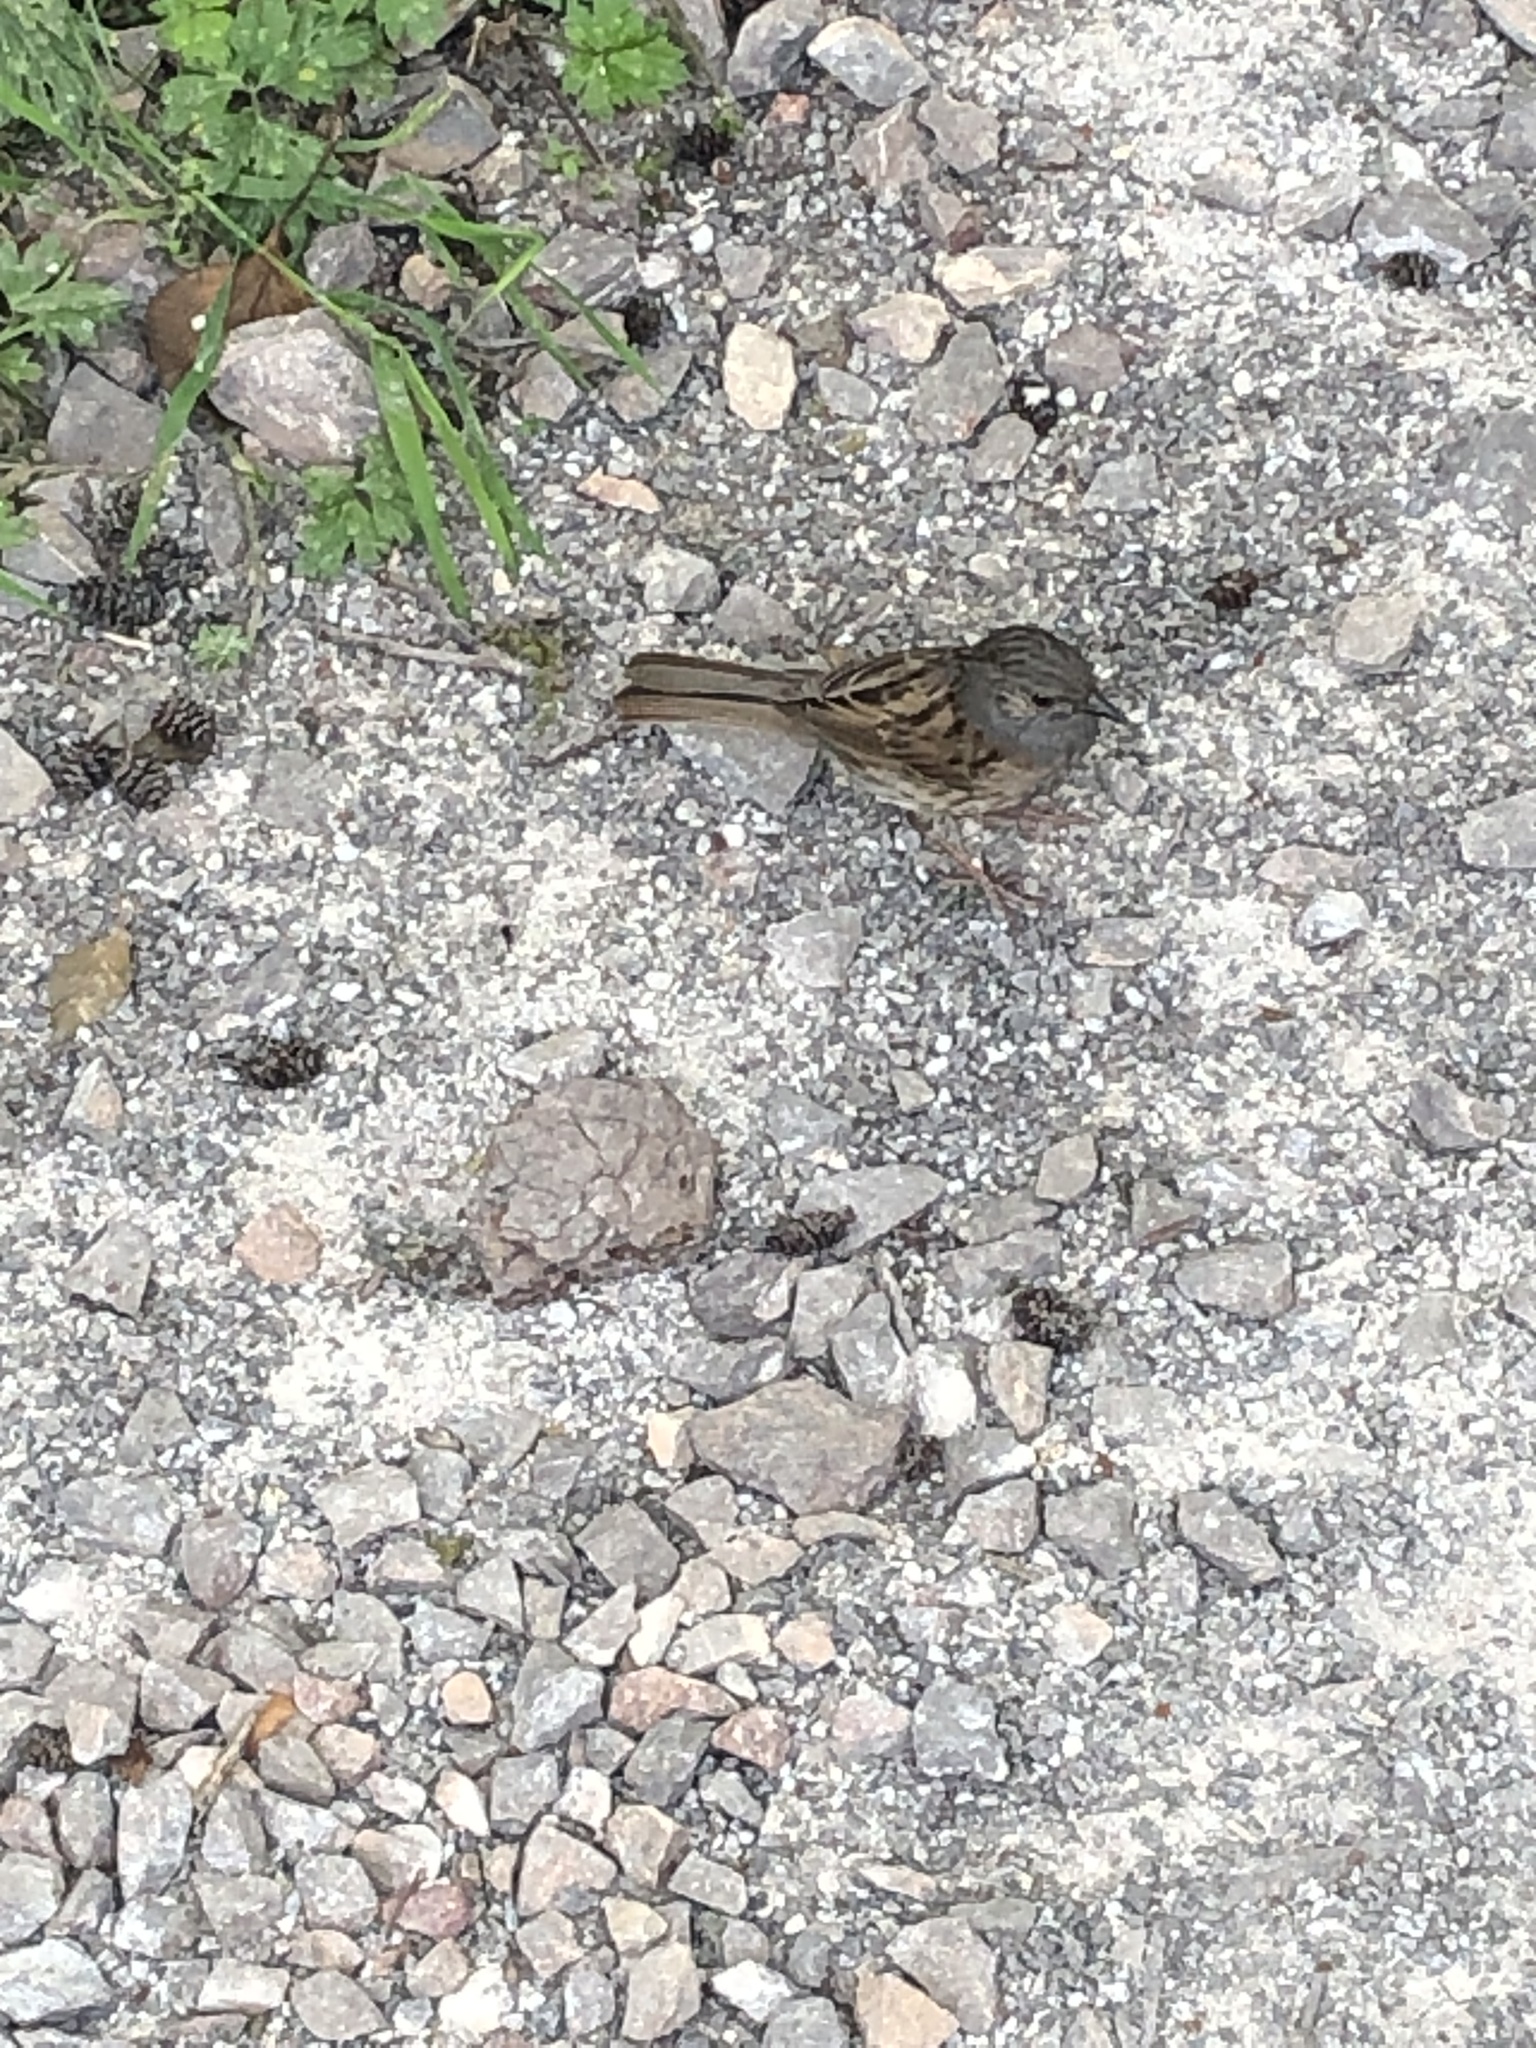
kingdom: Animalia
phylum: Chordata
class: Aves
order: Passeriformes
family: Prunellidae
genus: Prunella
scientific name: Prunella modularis
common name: Dunnock
